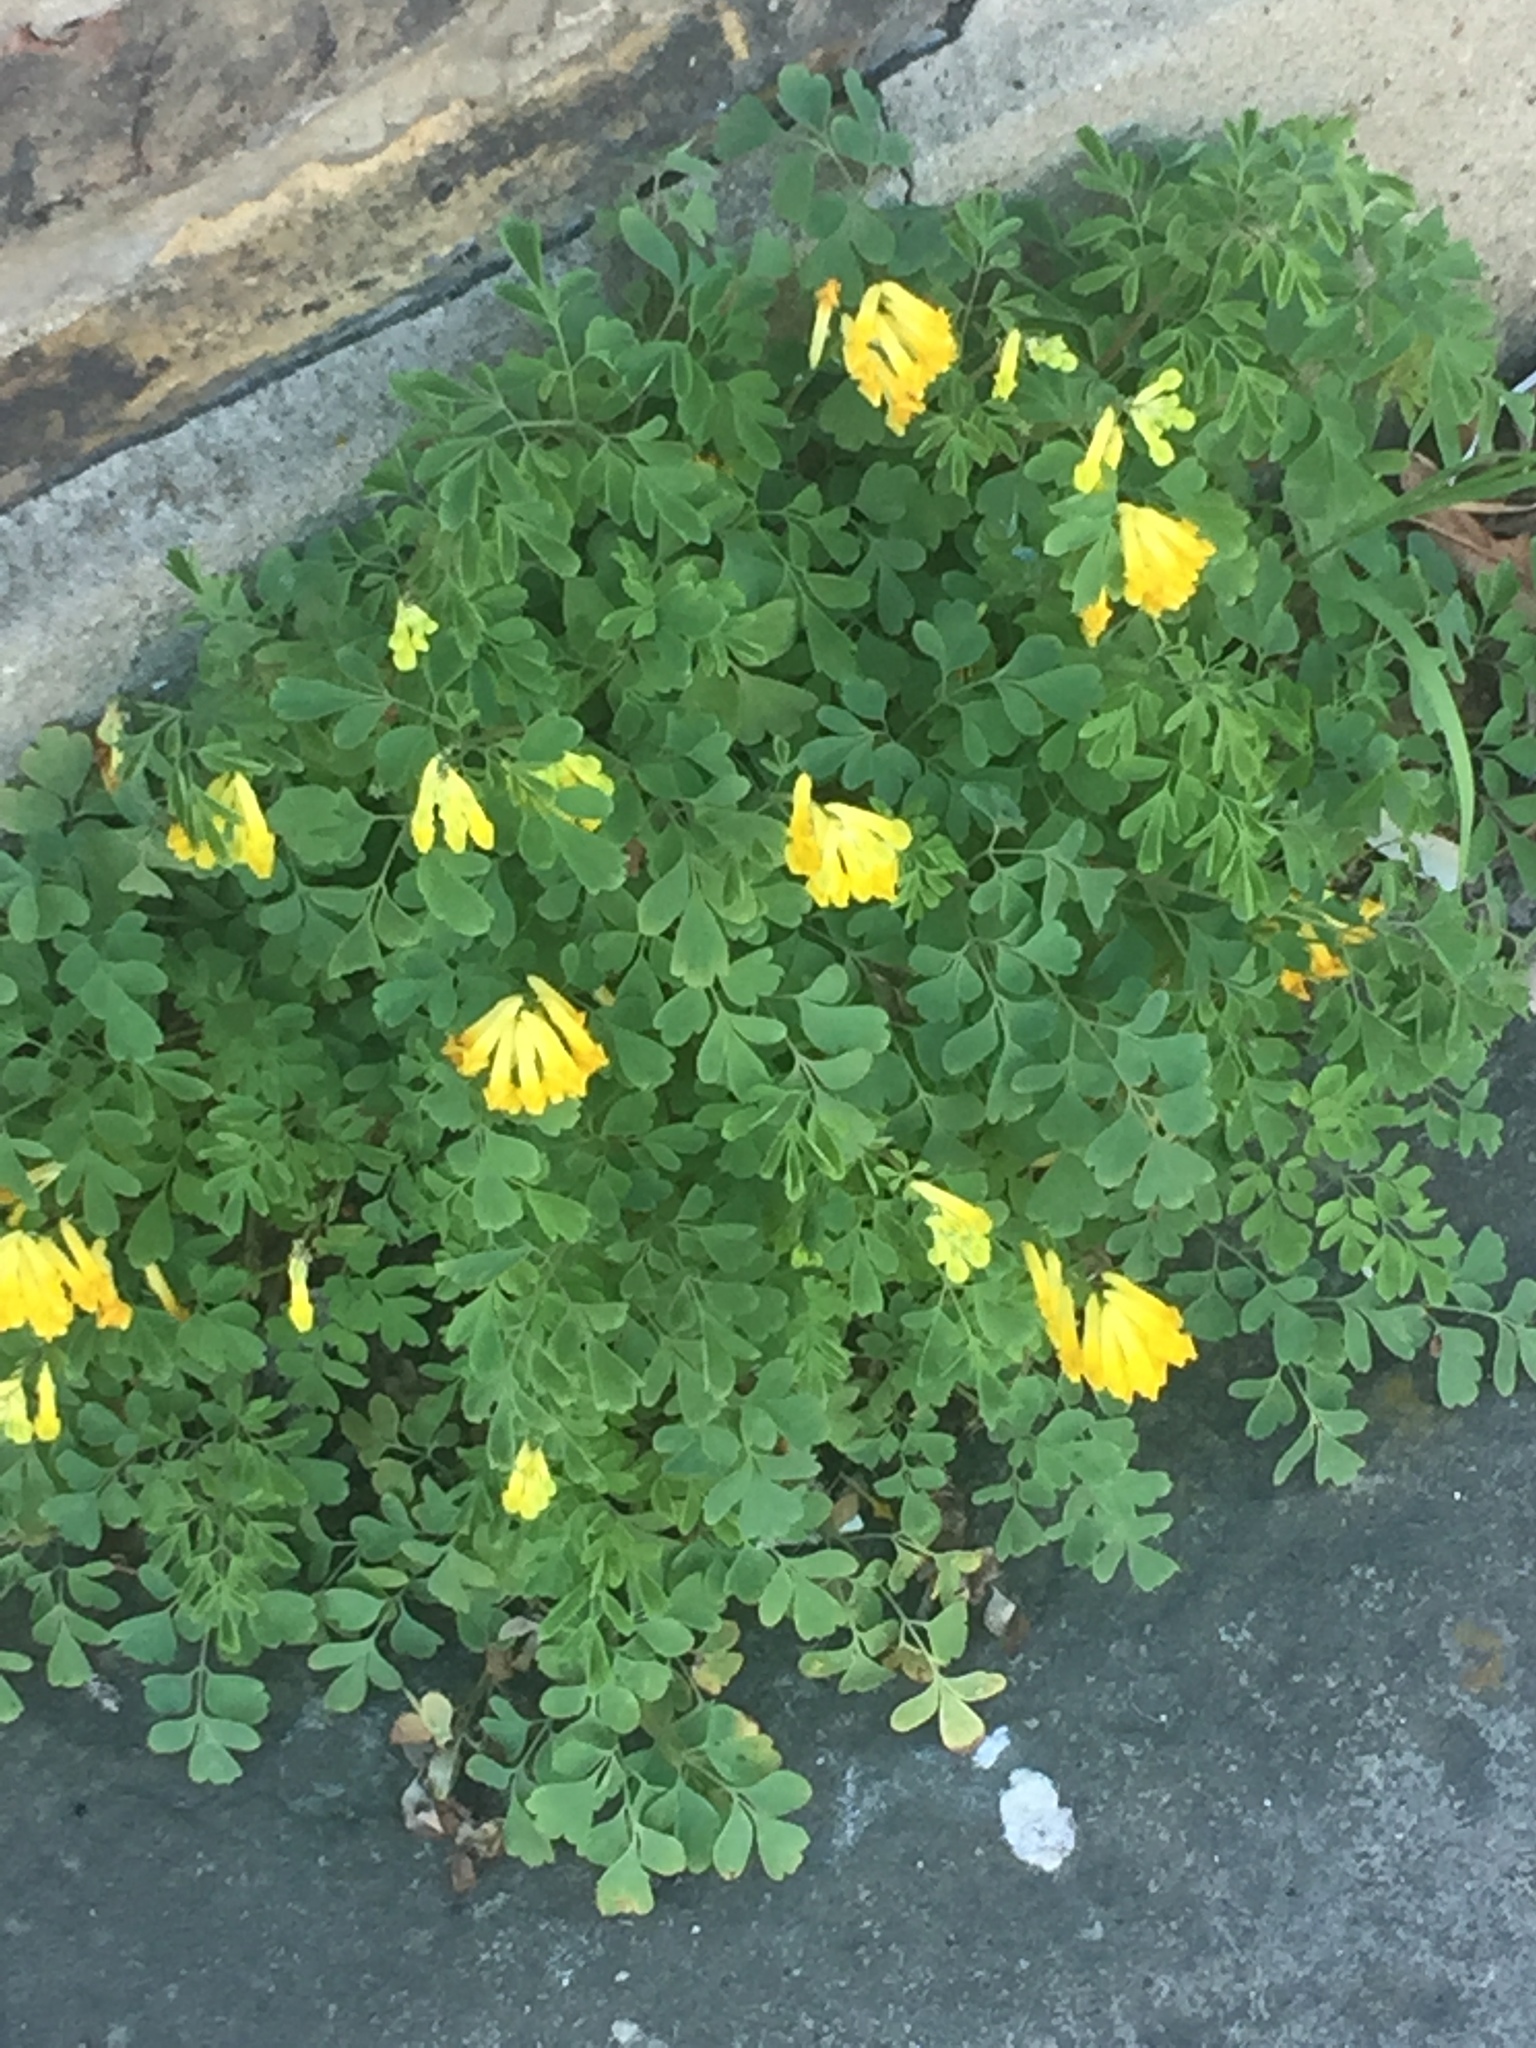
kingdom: Plantae
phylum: Tracheophyta
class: Magnoliopsida
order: Ranunculales
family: Papaveraceae
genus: Pseudofumaria
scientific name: Pseudofumaria lutea
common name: Yellow corydalis
